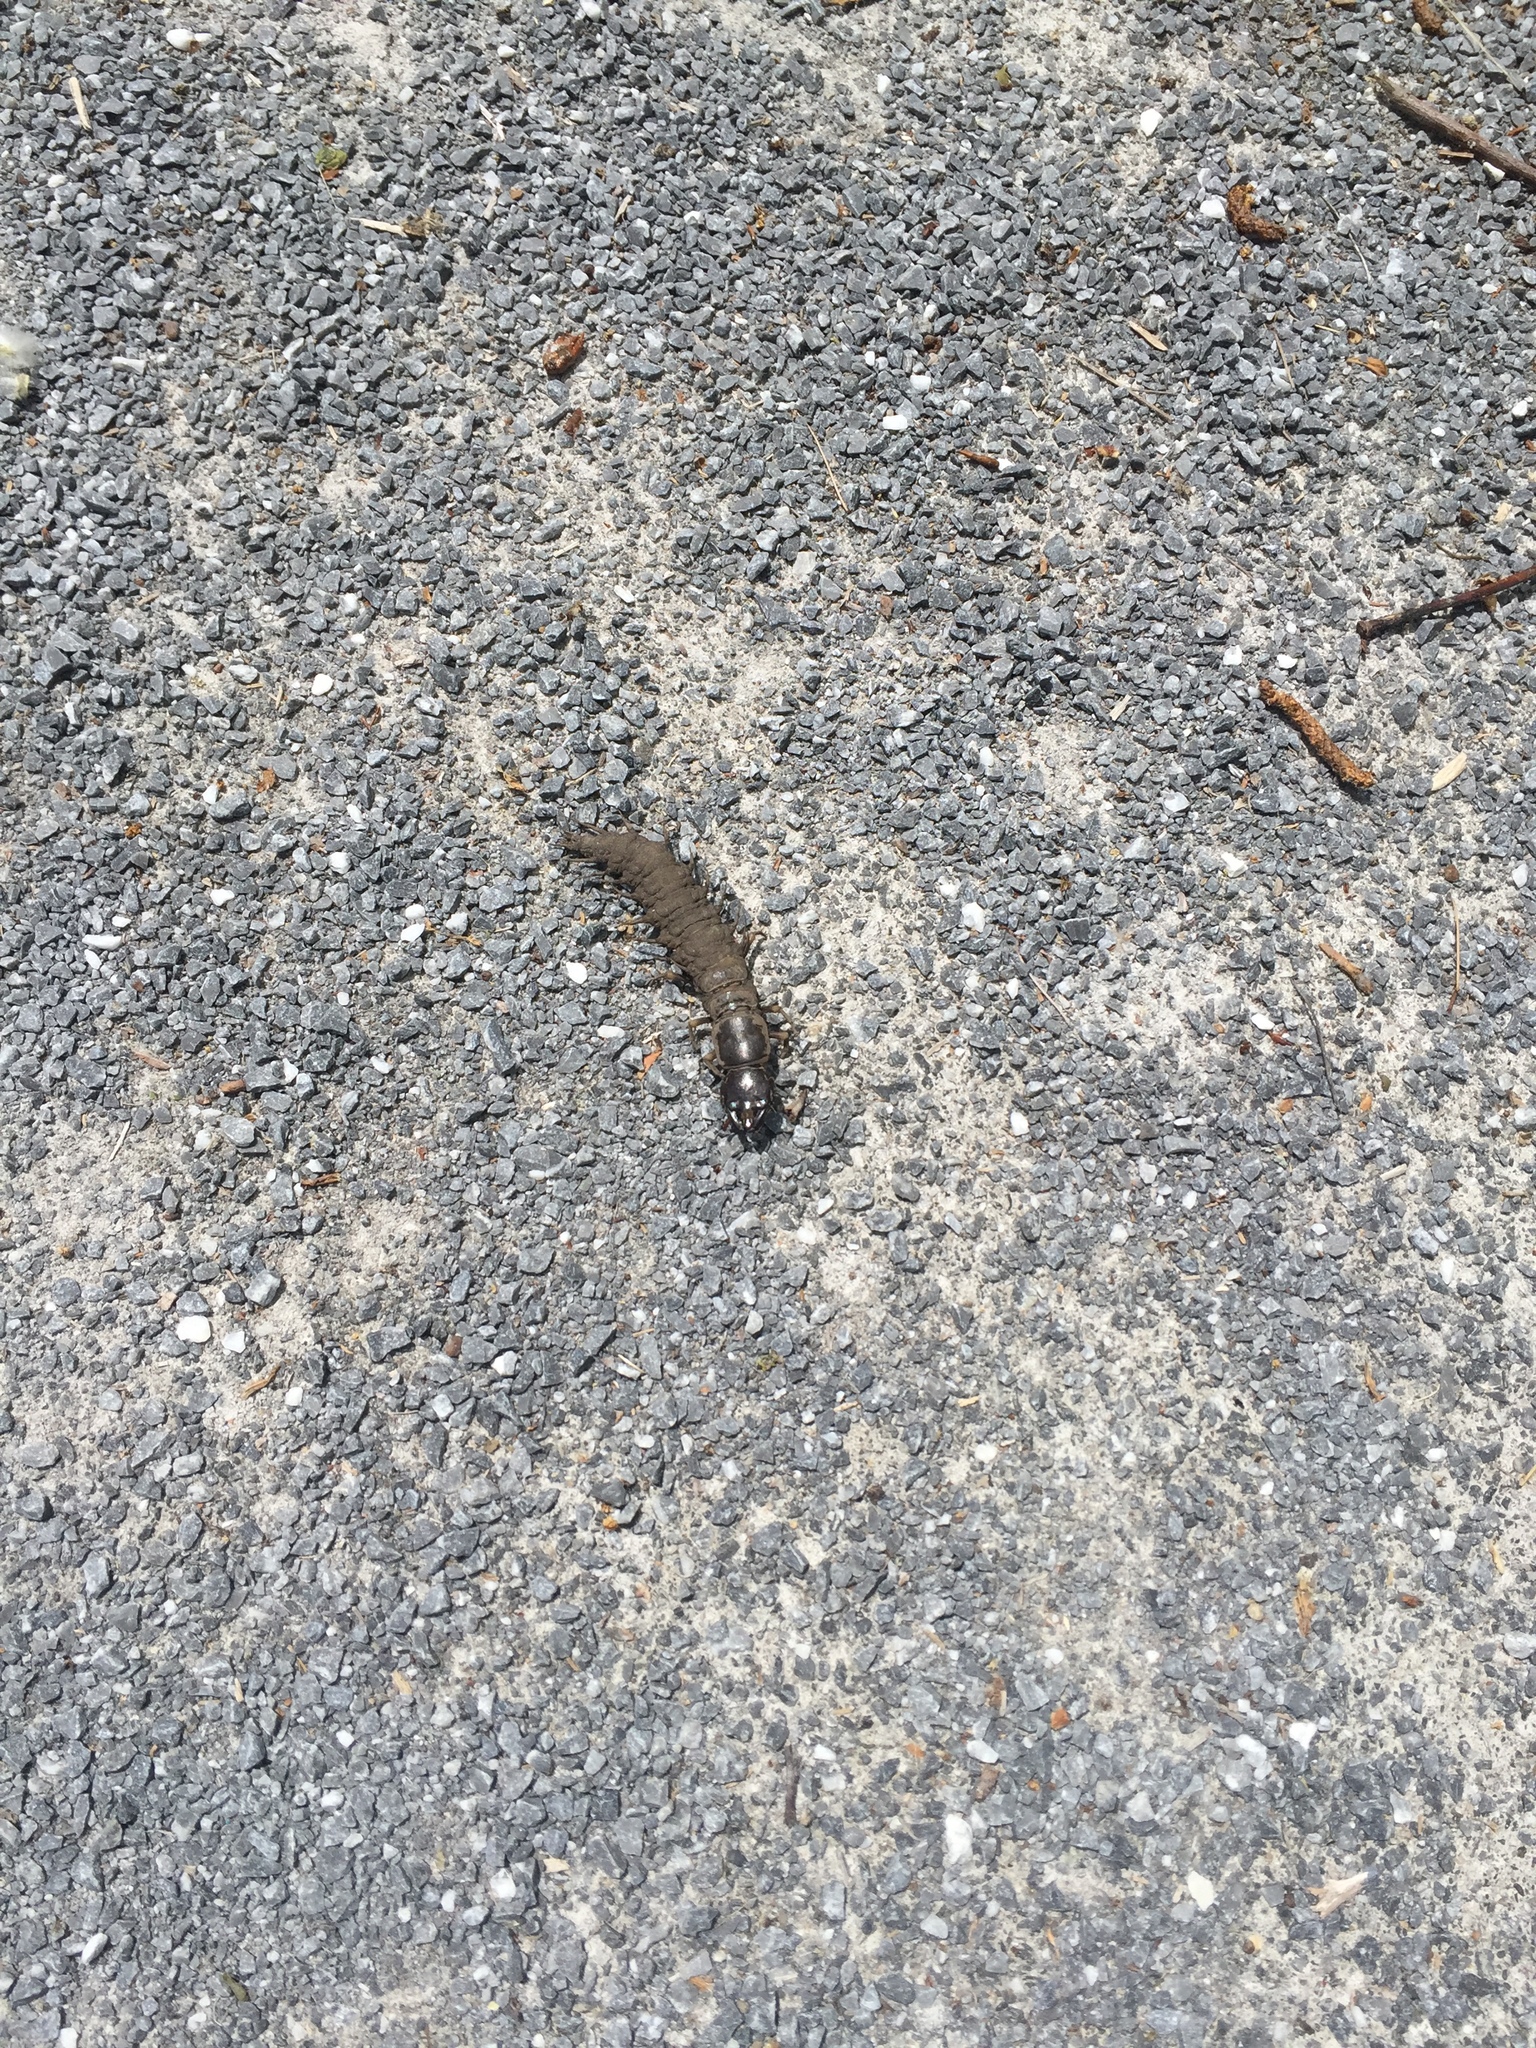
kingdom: Animalia
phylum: Arthropoda
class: Insecta
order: Megaloptera
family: Corydalidae
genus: Corydalus
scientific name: Corydalus cornutus
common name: Dobsonfly
